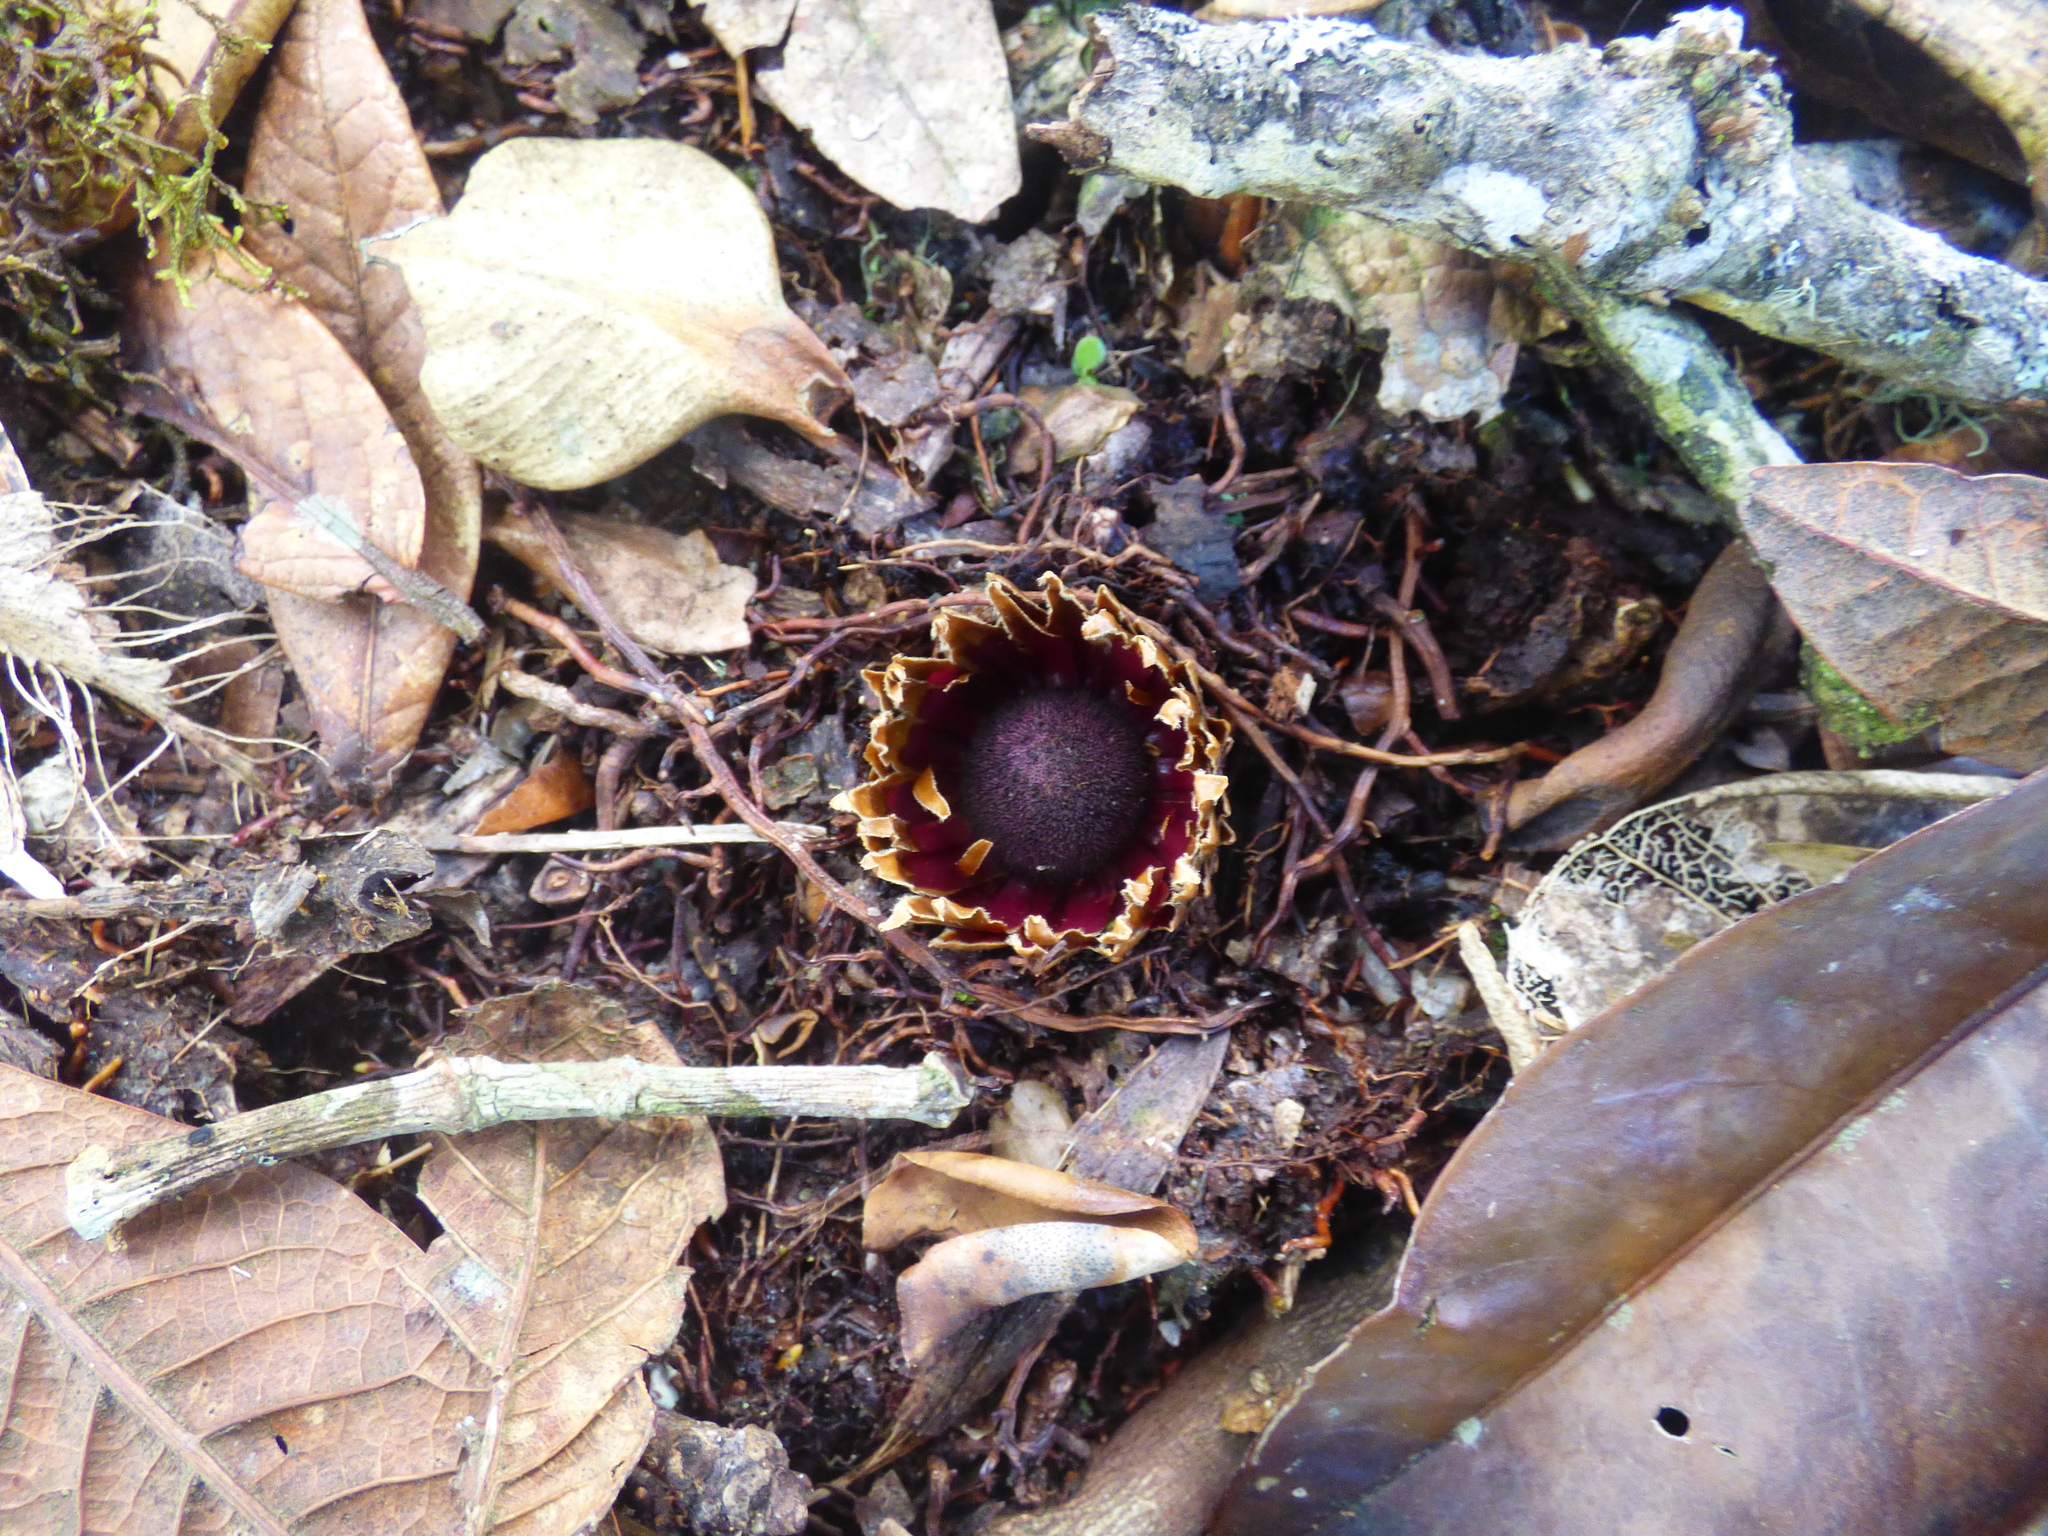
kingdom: Plantae
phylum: Tracheophyta
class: Magnoliopsida
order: Santalales
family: Balanophoraceae
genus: Langsdorffia
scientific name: Langsdorffia hypogaea
